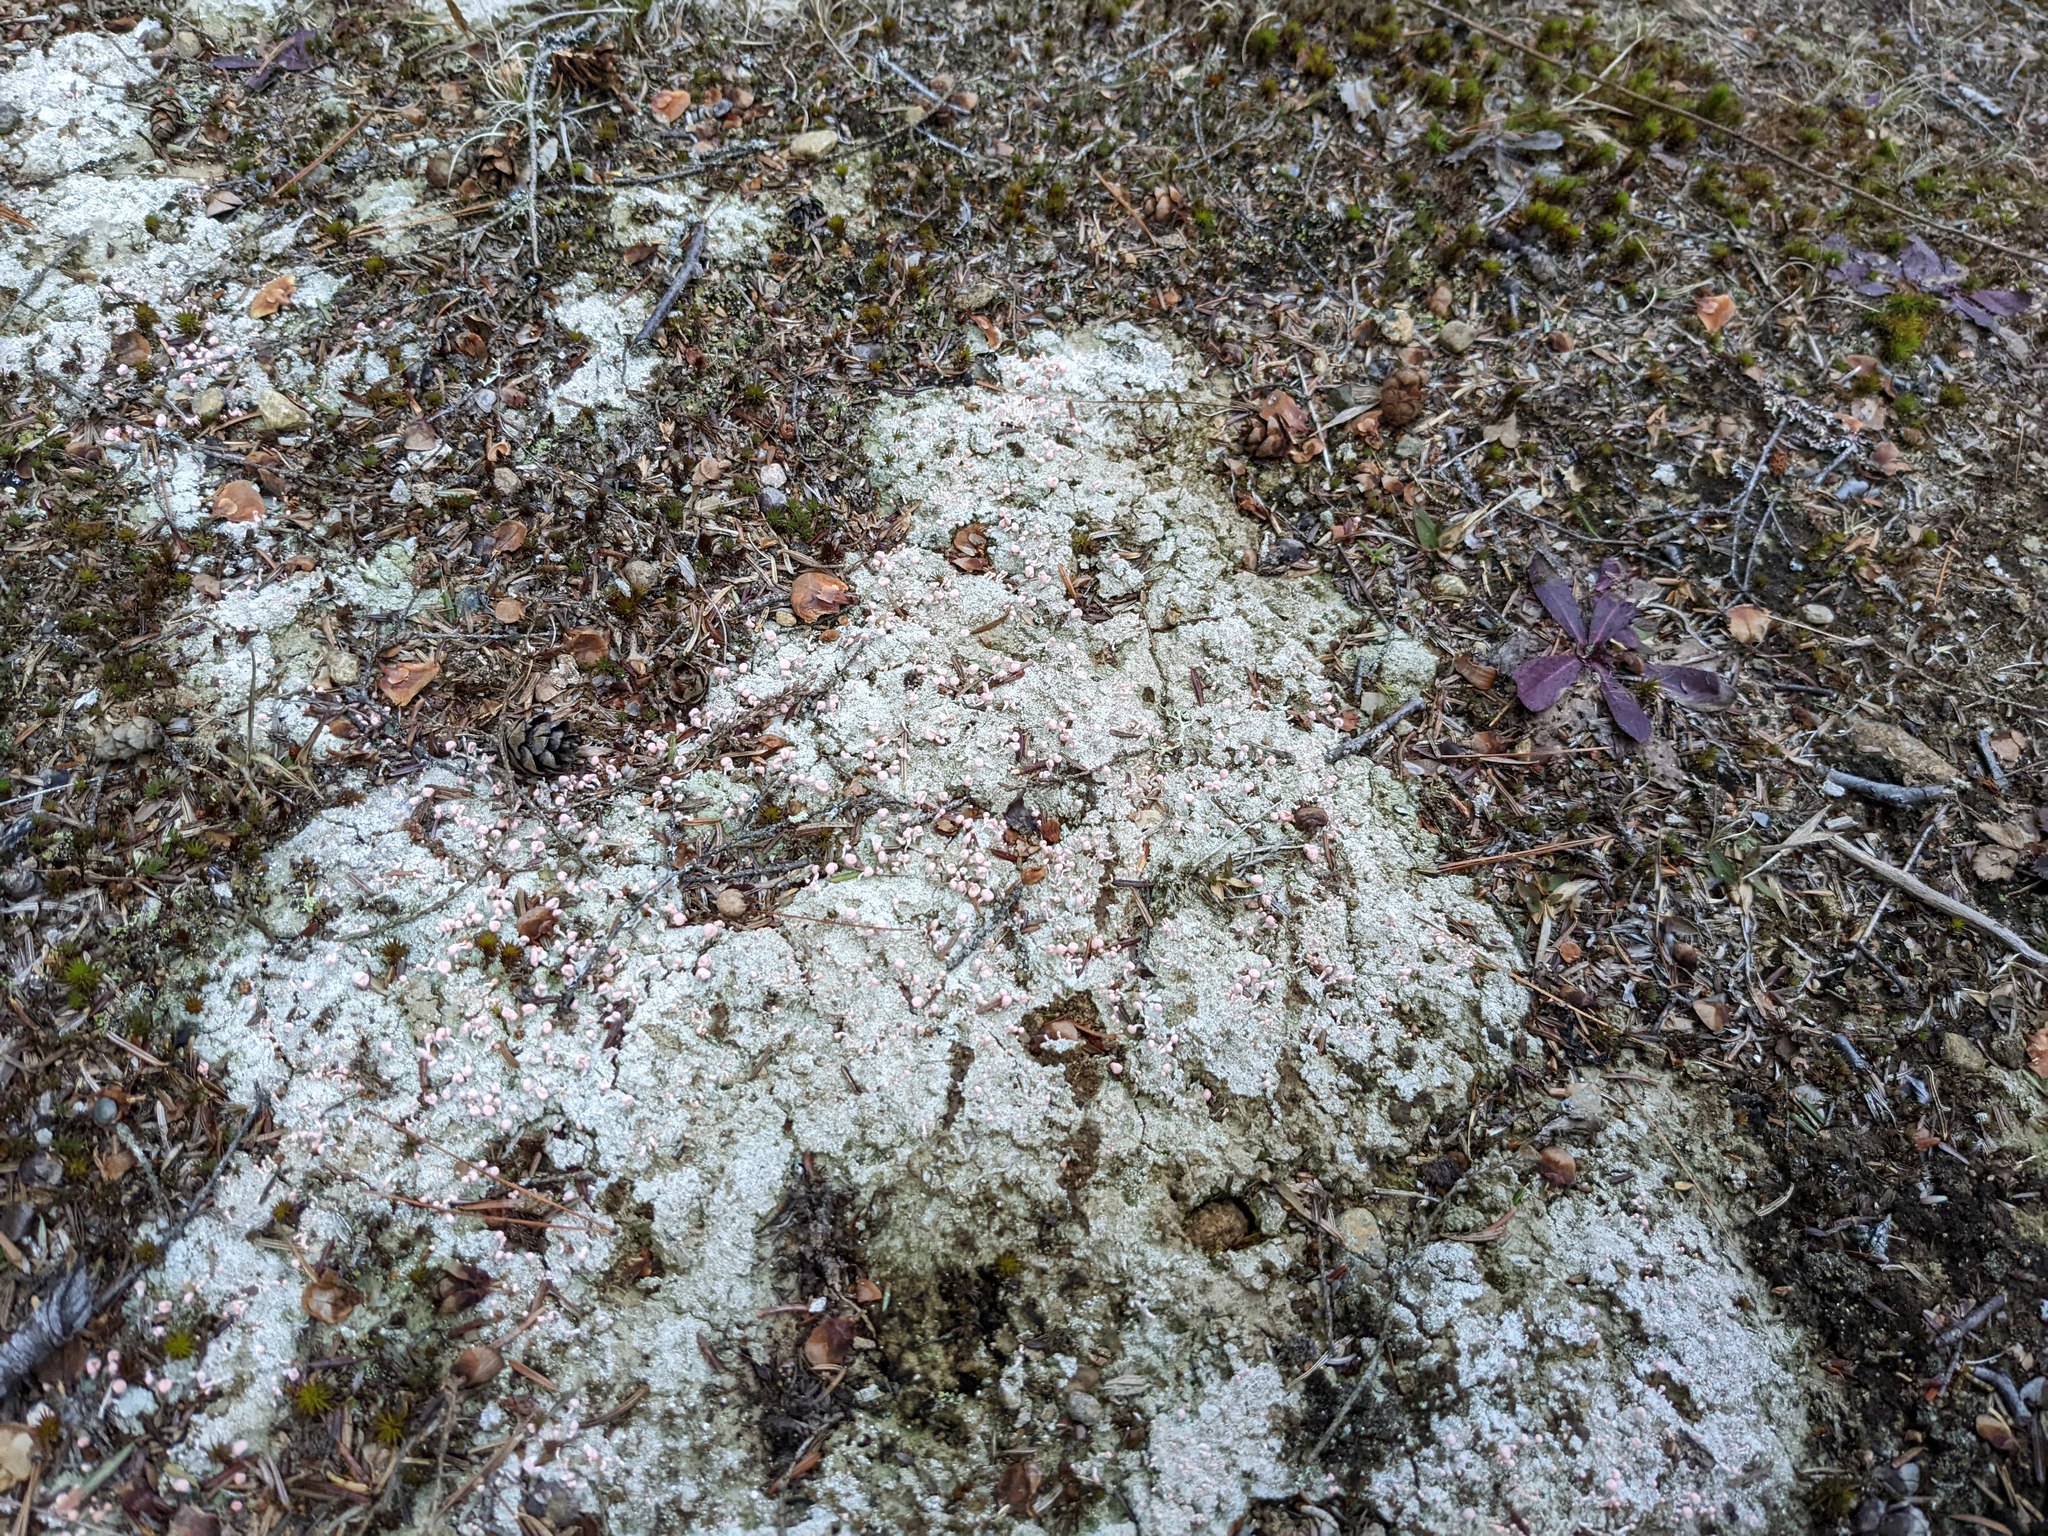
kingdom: Fungi
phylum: Ascomycota
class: Lecanoromycetes
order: Pertusariales
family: Icmadophilaceae
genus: Dibaeis
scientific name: Dibaeis baeomyces
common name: Pink earth lichen
